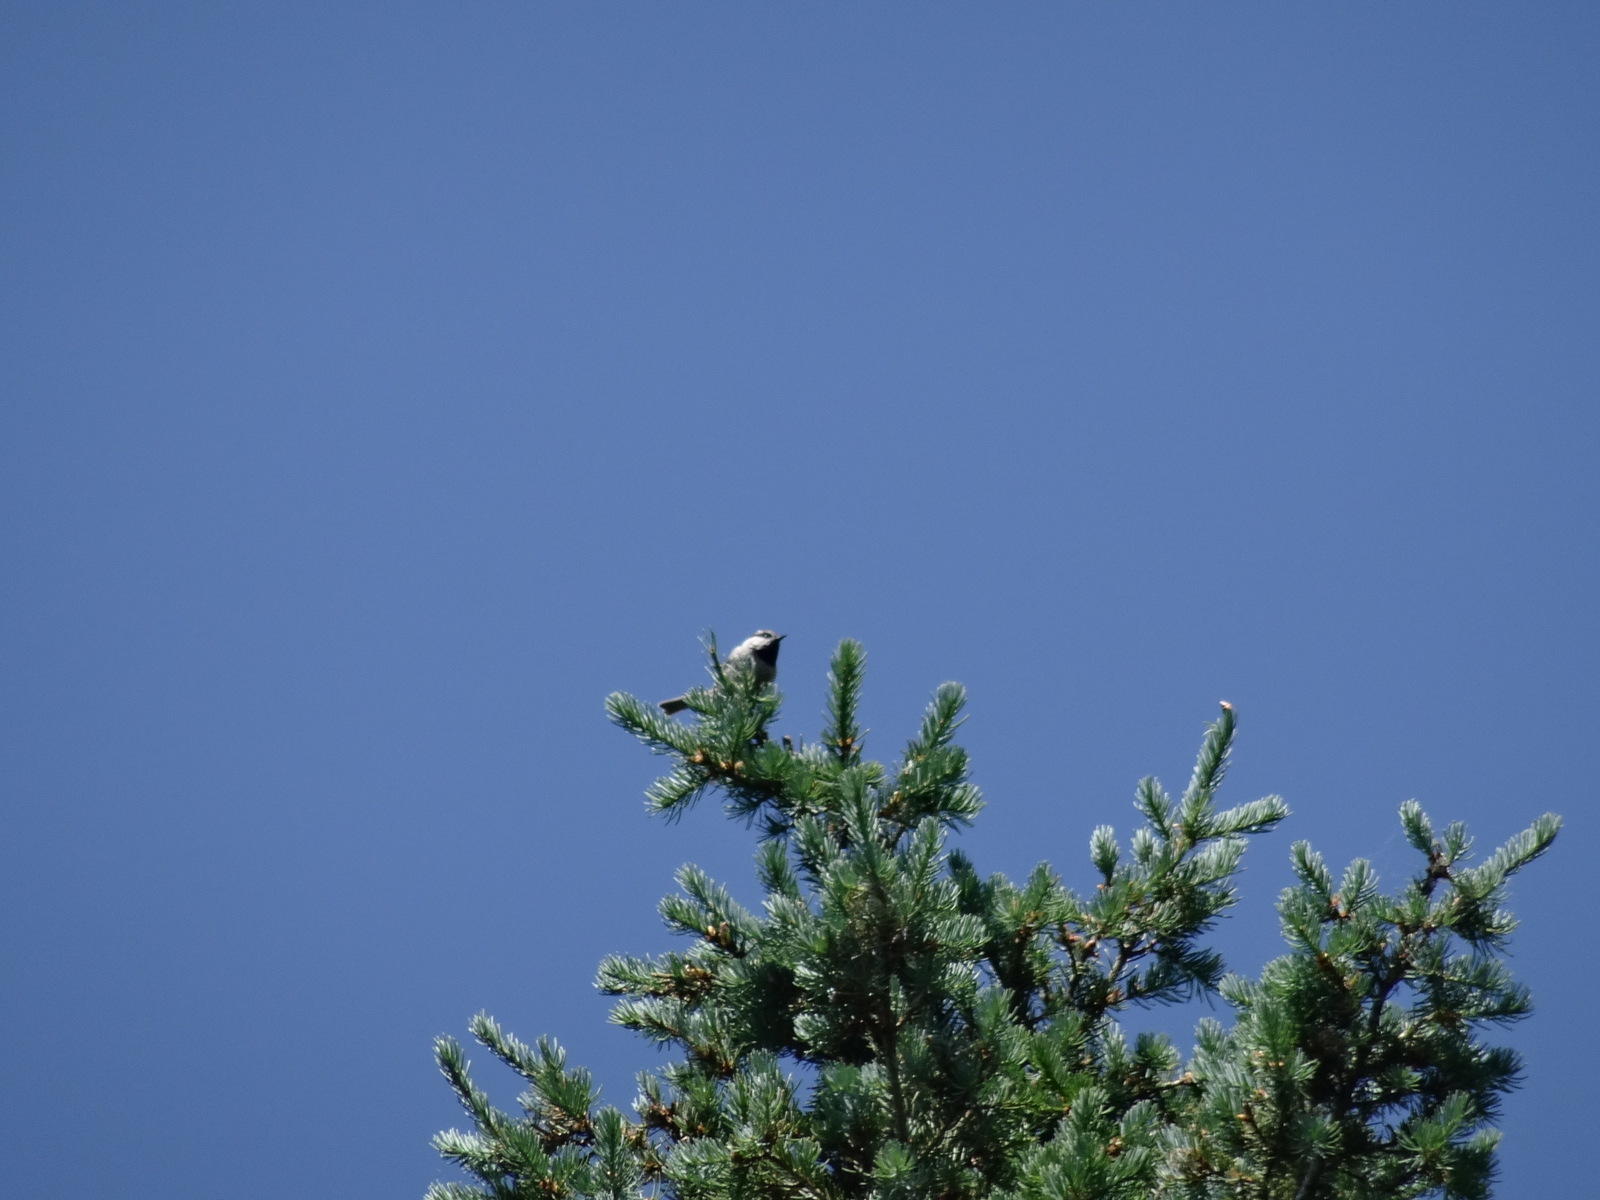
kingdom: Animalia
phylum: Chordata
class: Aves
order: Passeriformes
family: Paridae
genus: Poecile
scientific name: Poecile gambeli
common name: Mountain chickadee
